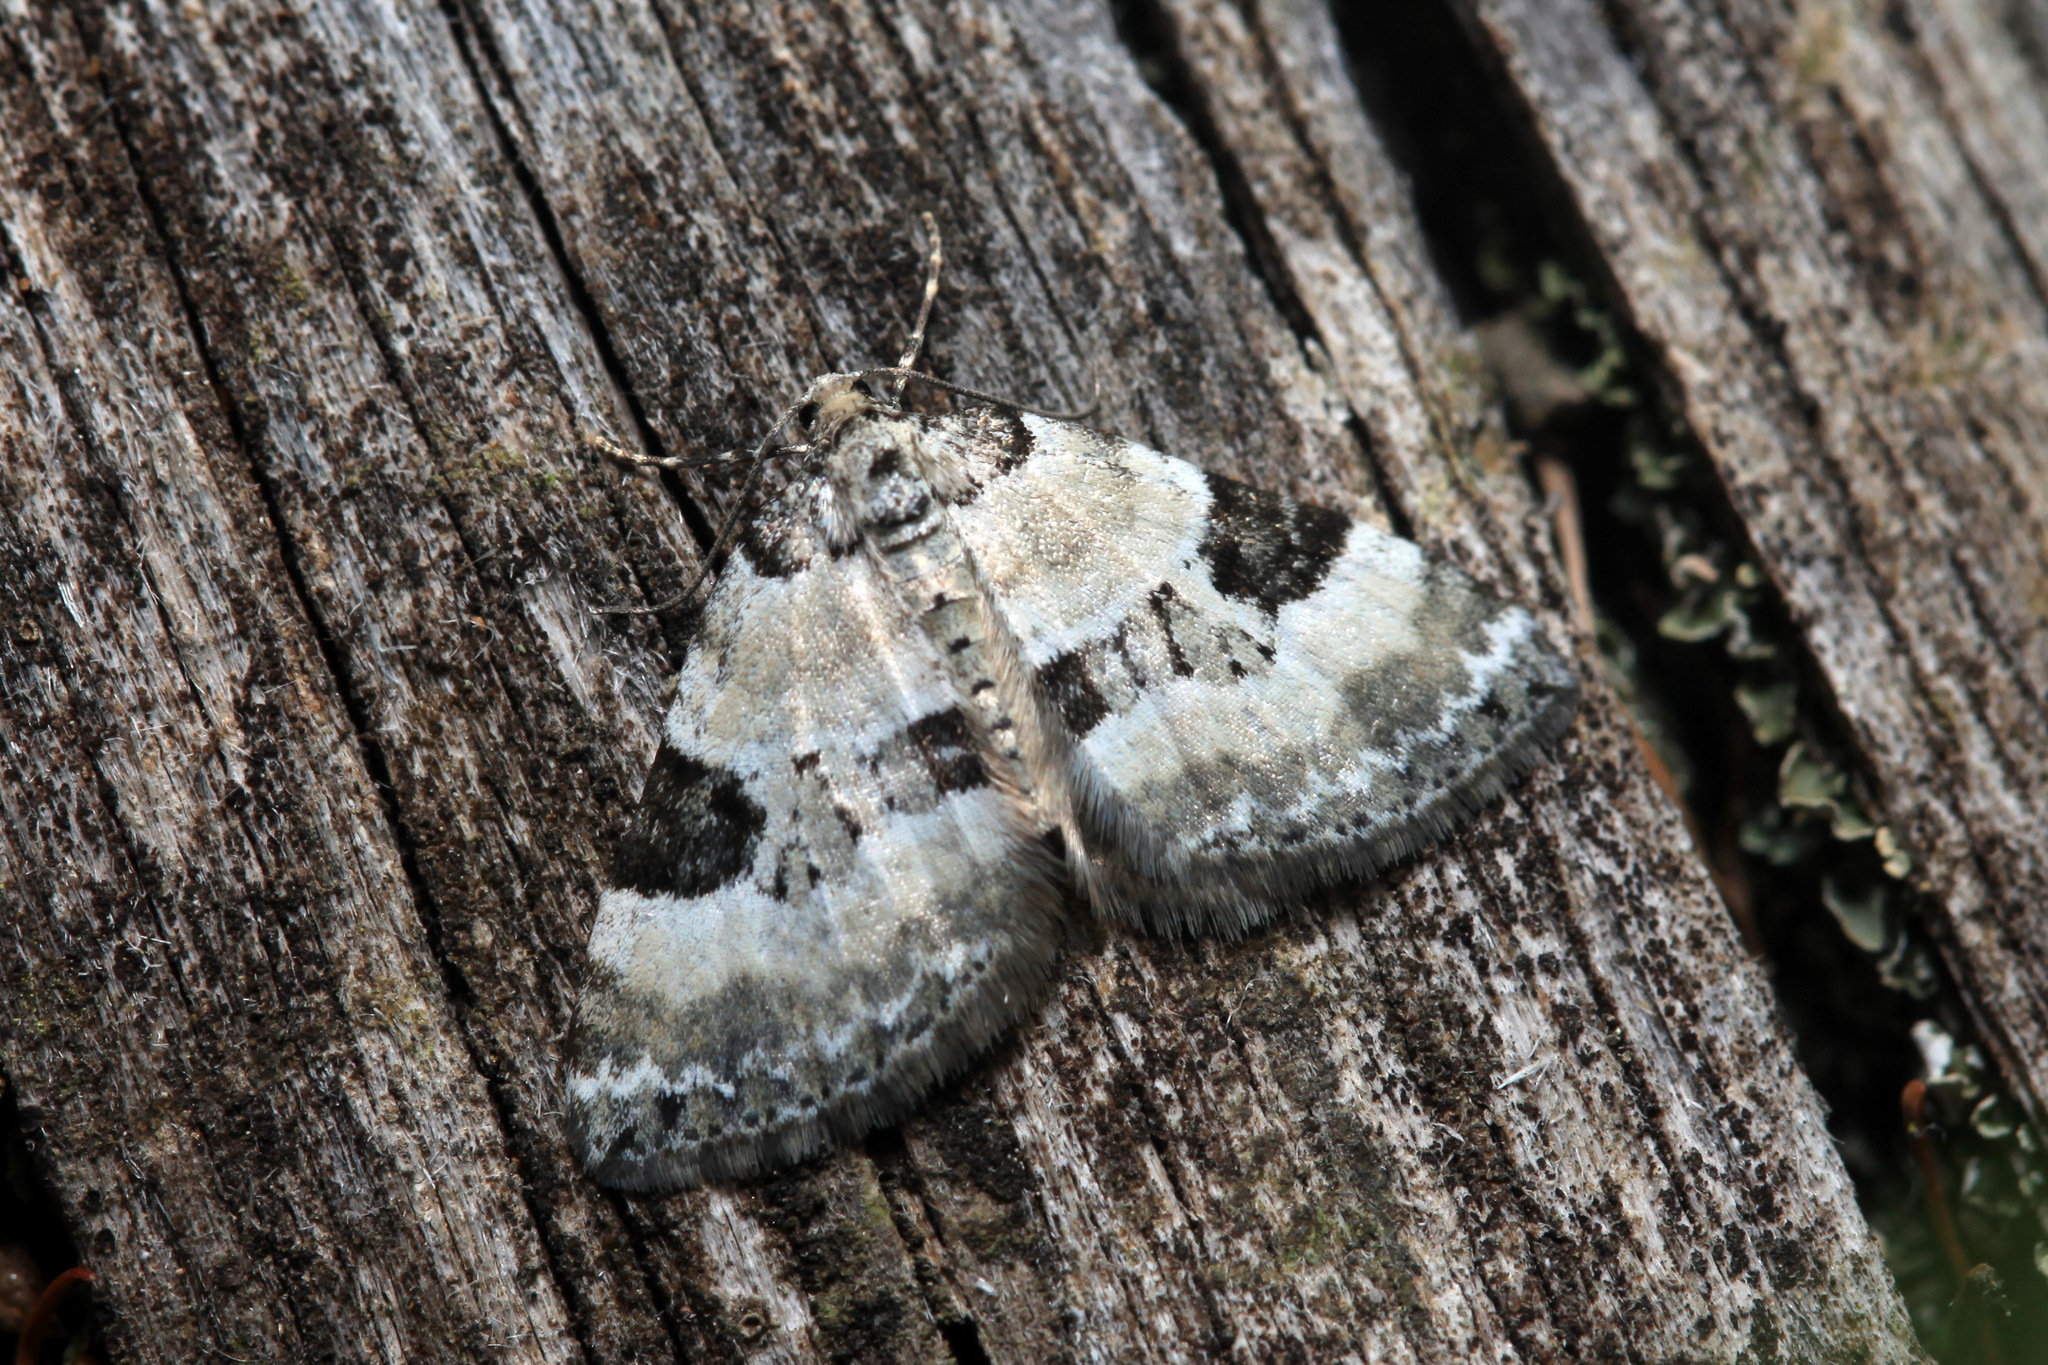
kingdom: Animalia
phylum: Arthropoda
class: Insecta
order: Lepidoptera
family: Geometridae
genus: Perizoma
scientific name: Perizoma blandiata
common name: Pretty pinion
